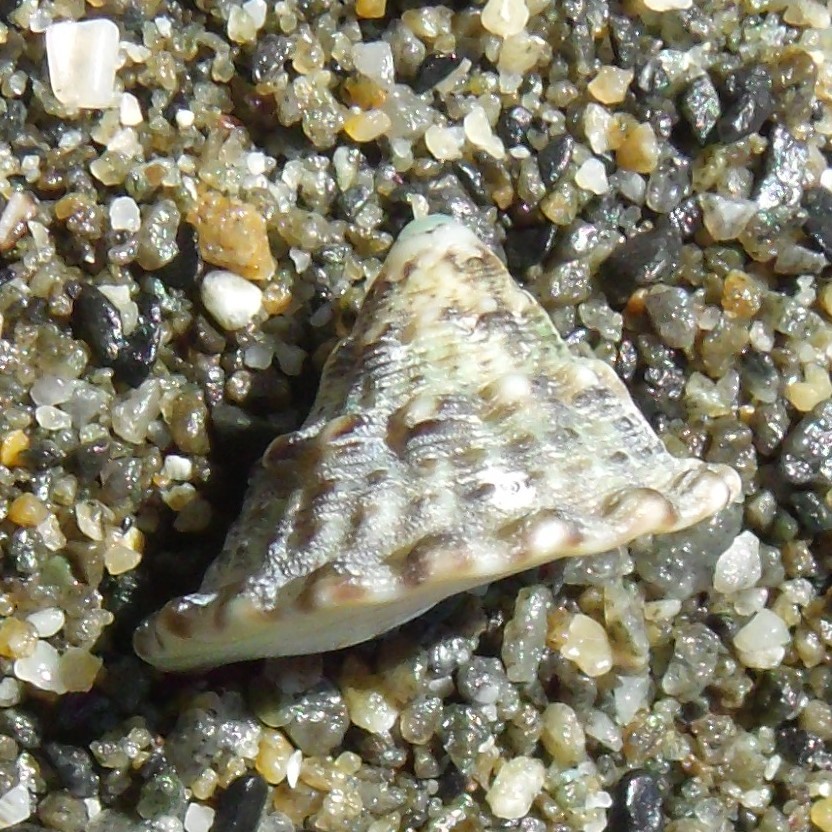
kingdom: Animalia
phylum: Mollusca
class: Gastropoda
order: Trochida
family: Trochidae
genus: Coelotrochus
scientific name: Coelotrochus viridis
